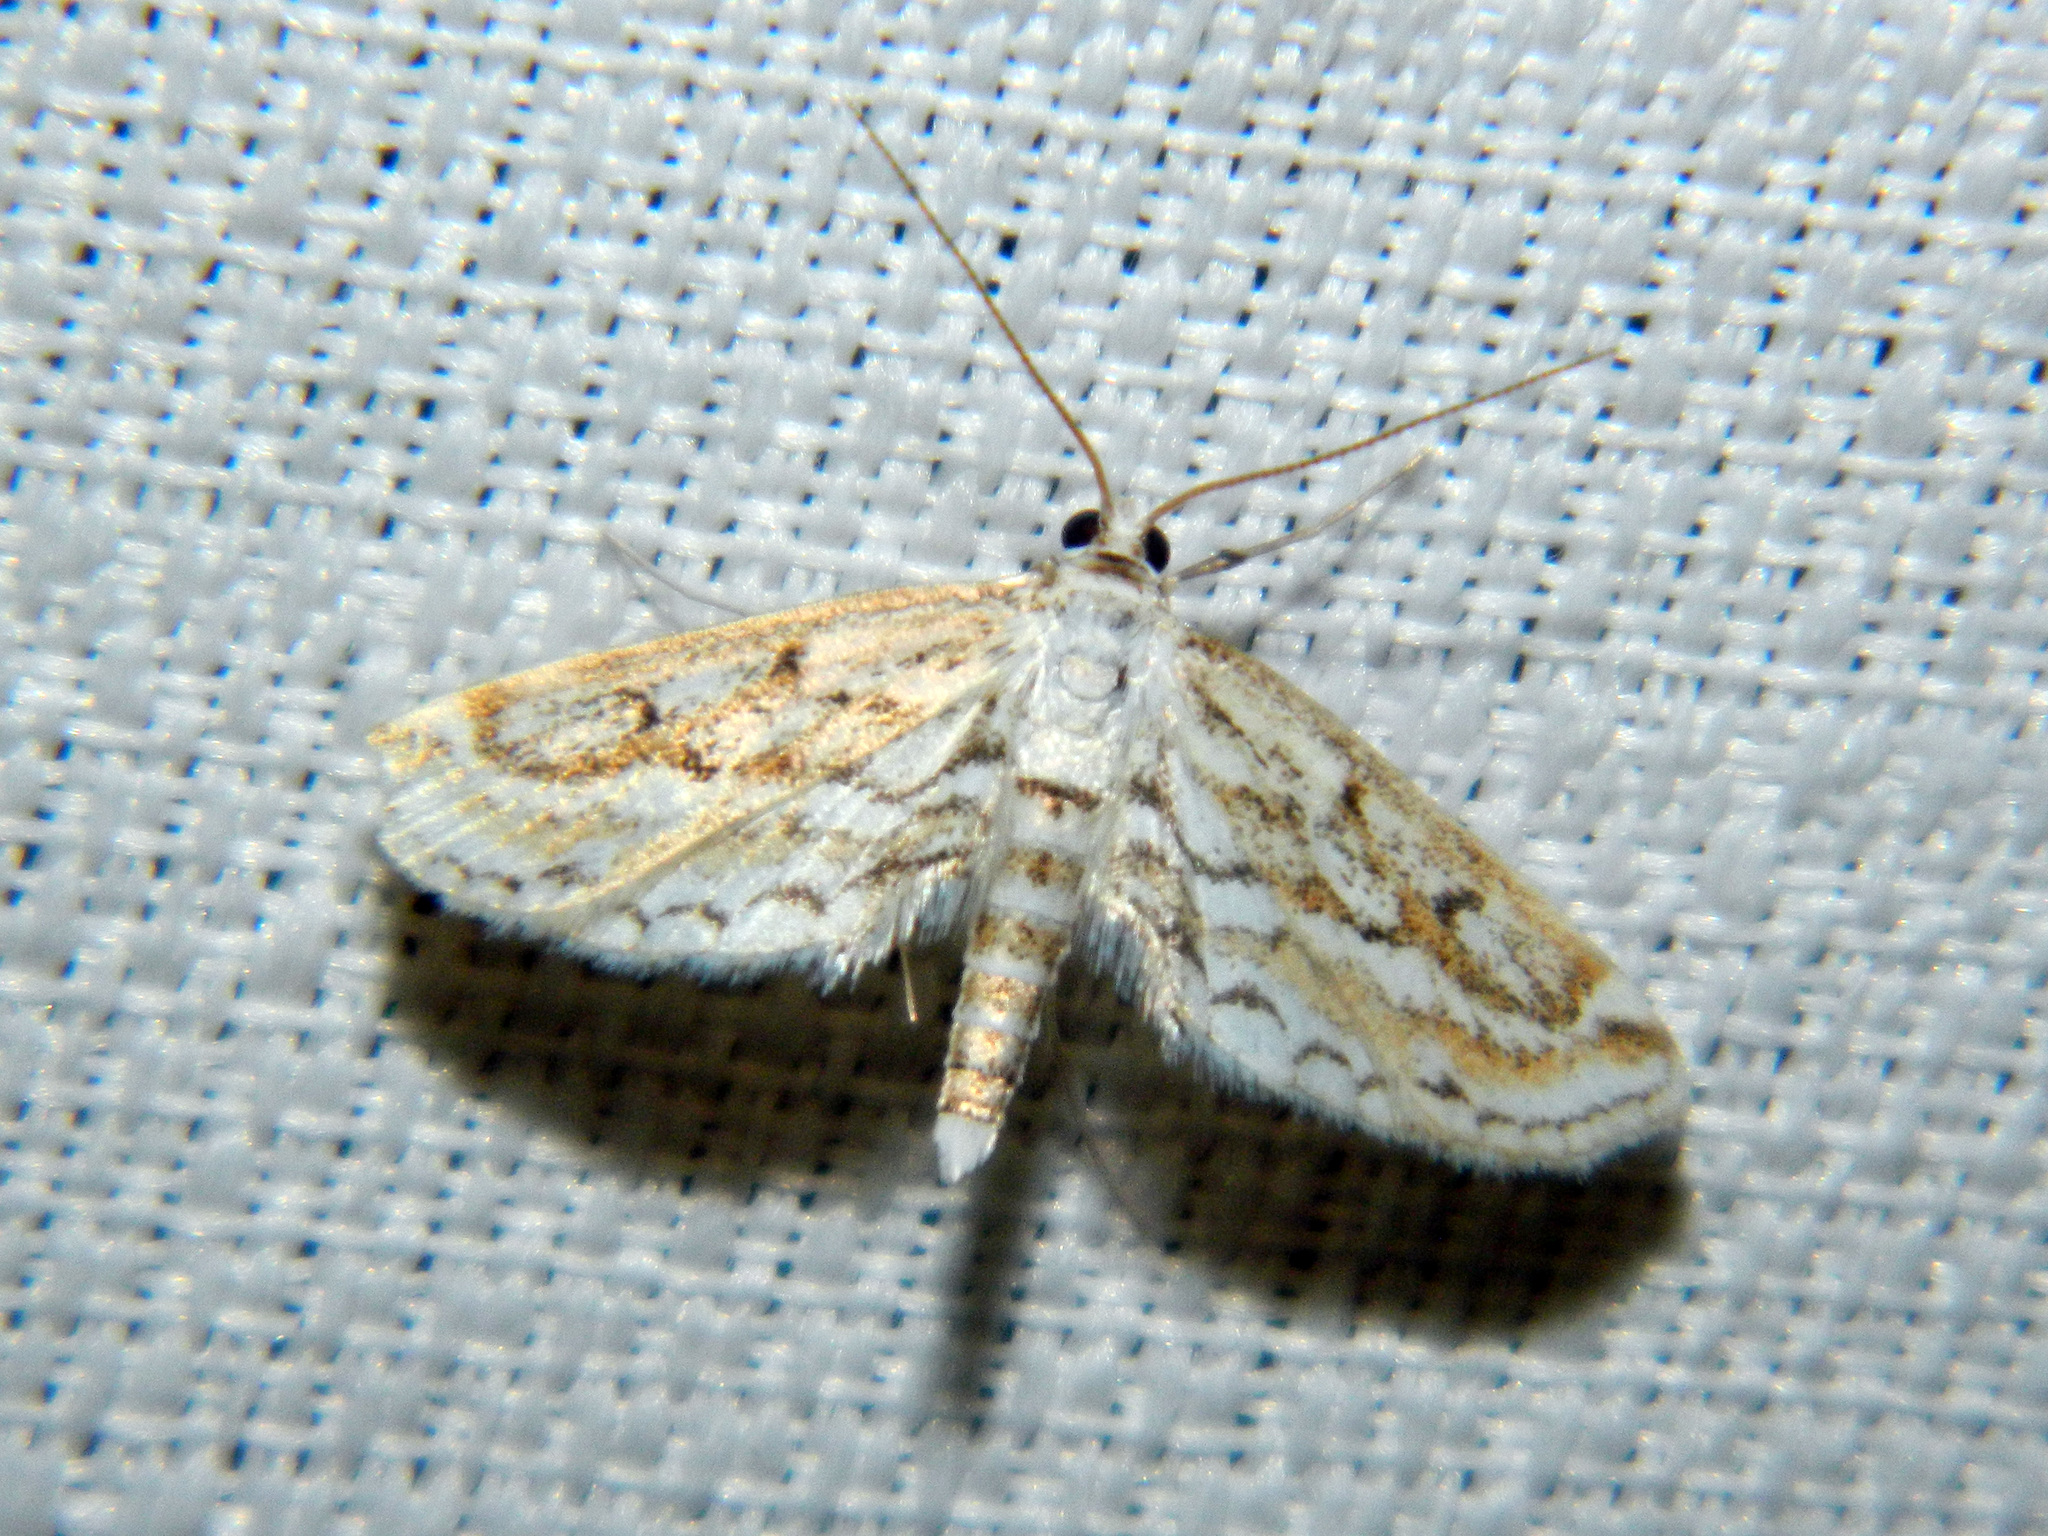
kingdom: Animalia
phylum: Arthropoda
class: Insecta
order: Lepidoptera
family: Crambidae
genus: Parapoynx
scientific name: Parapoynx allionealis
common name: Bladderwort casemaker
